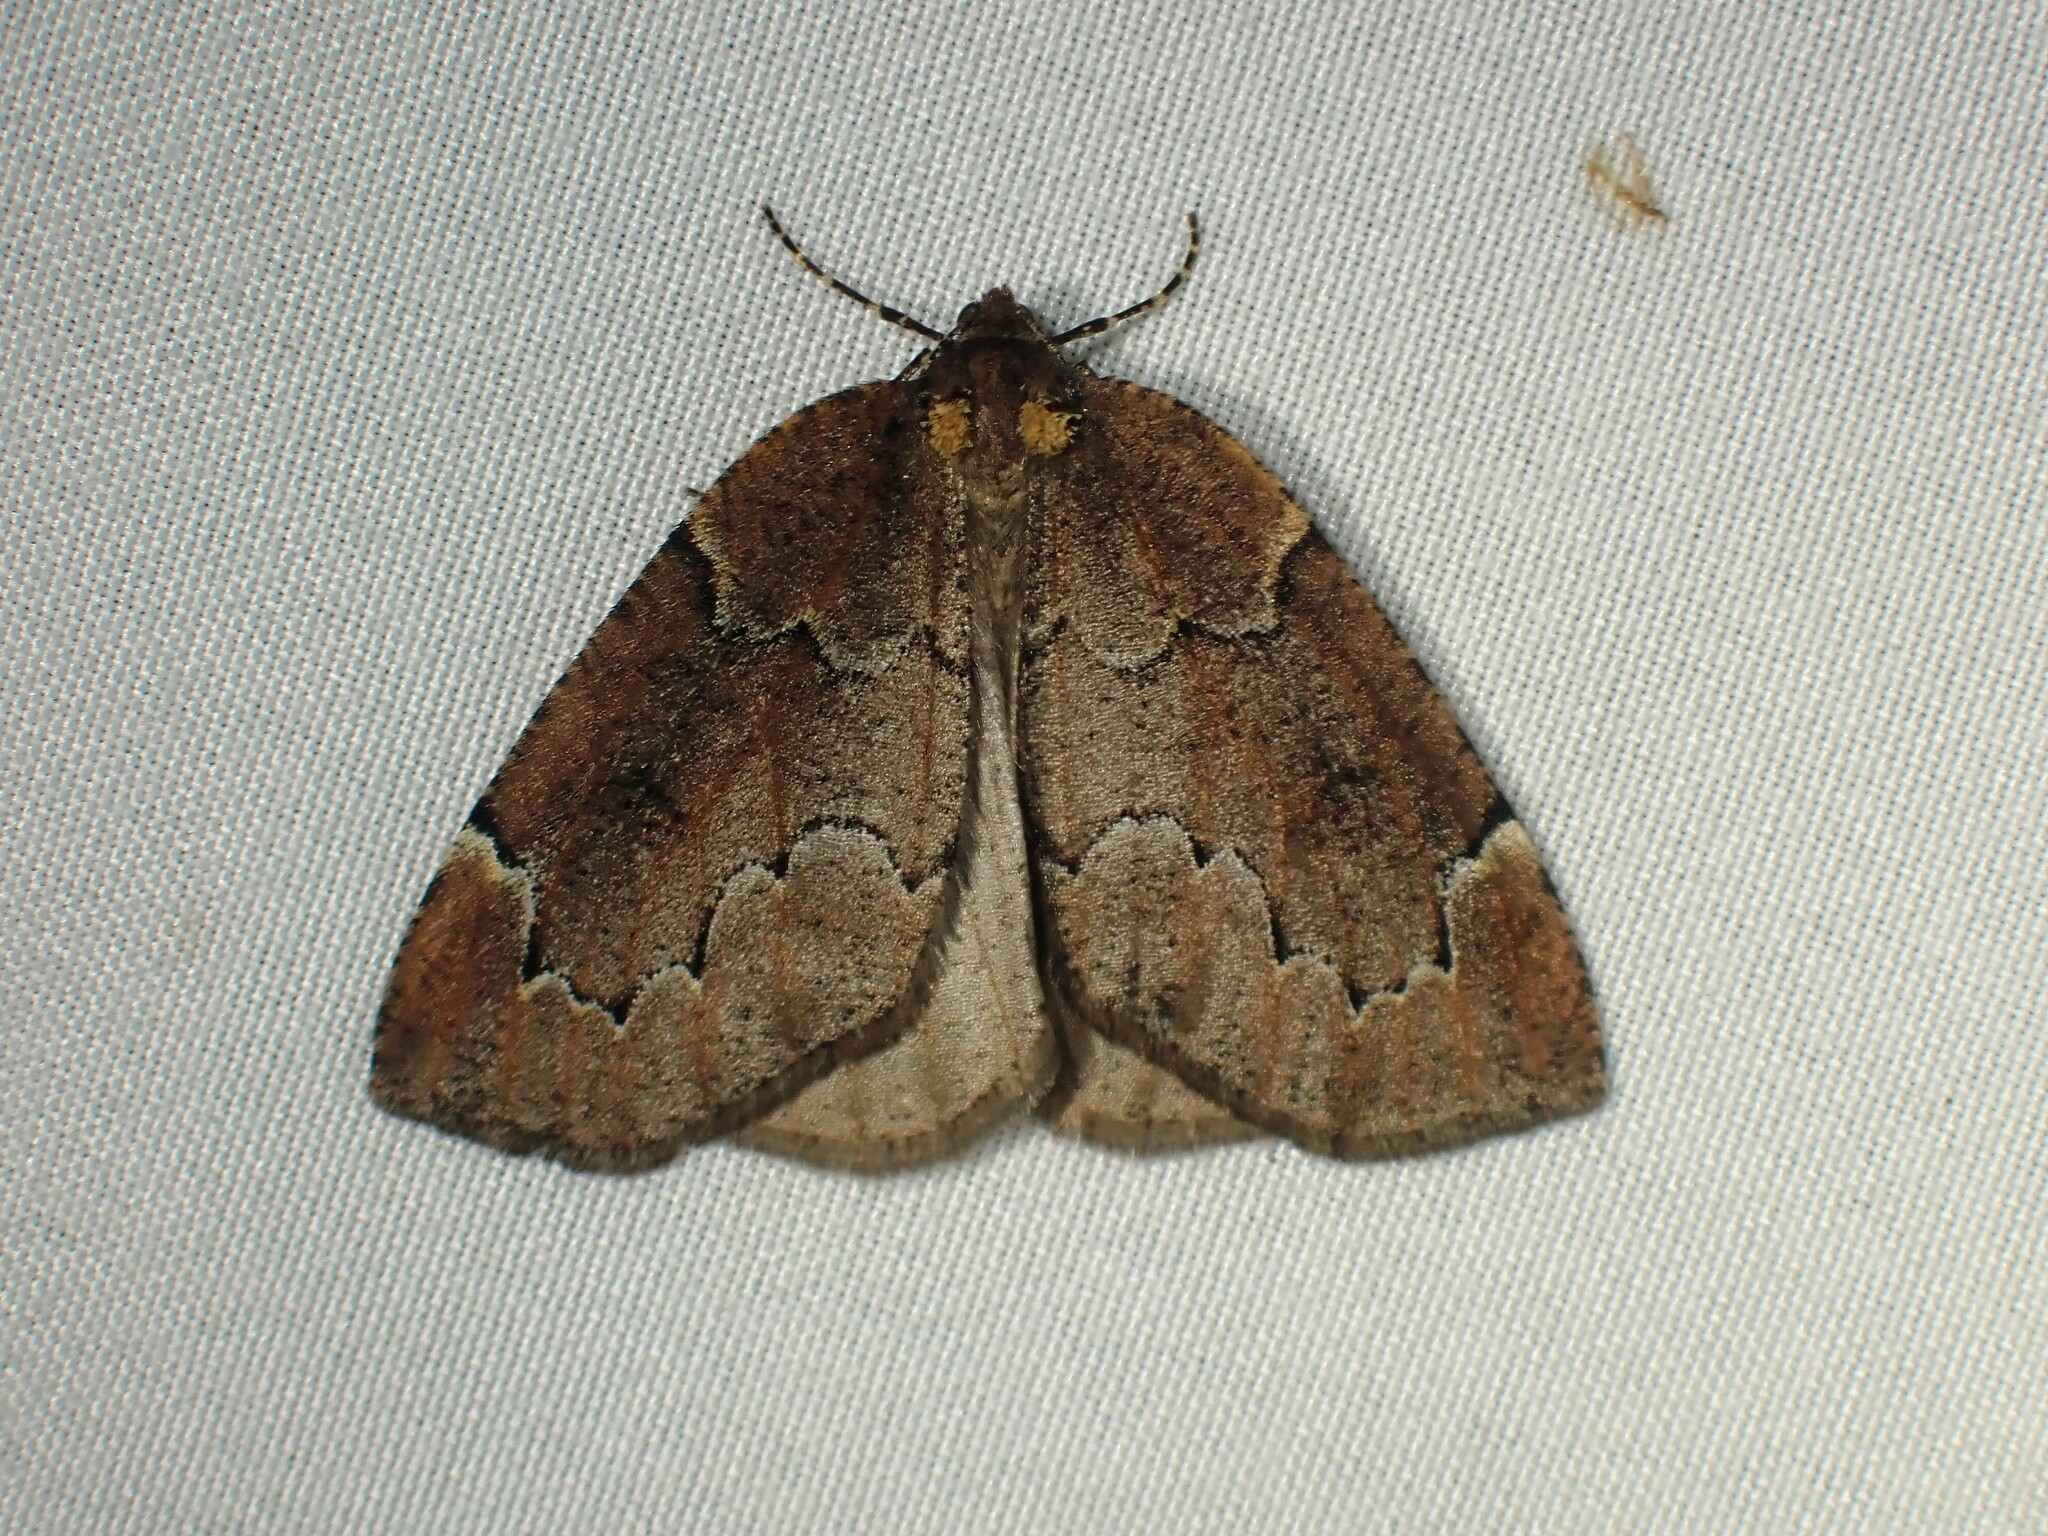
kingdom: Animalia
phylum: Arthropoda
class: Insecta
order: Lepidoptera
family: Geometridae
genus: Spodolepis
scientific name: Spodolepis substriataria
